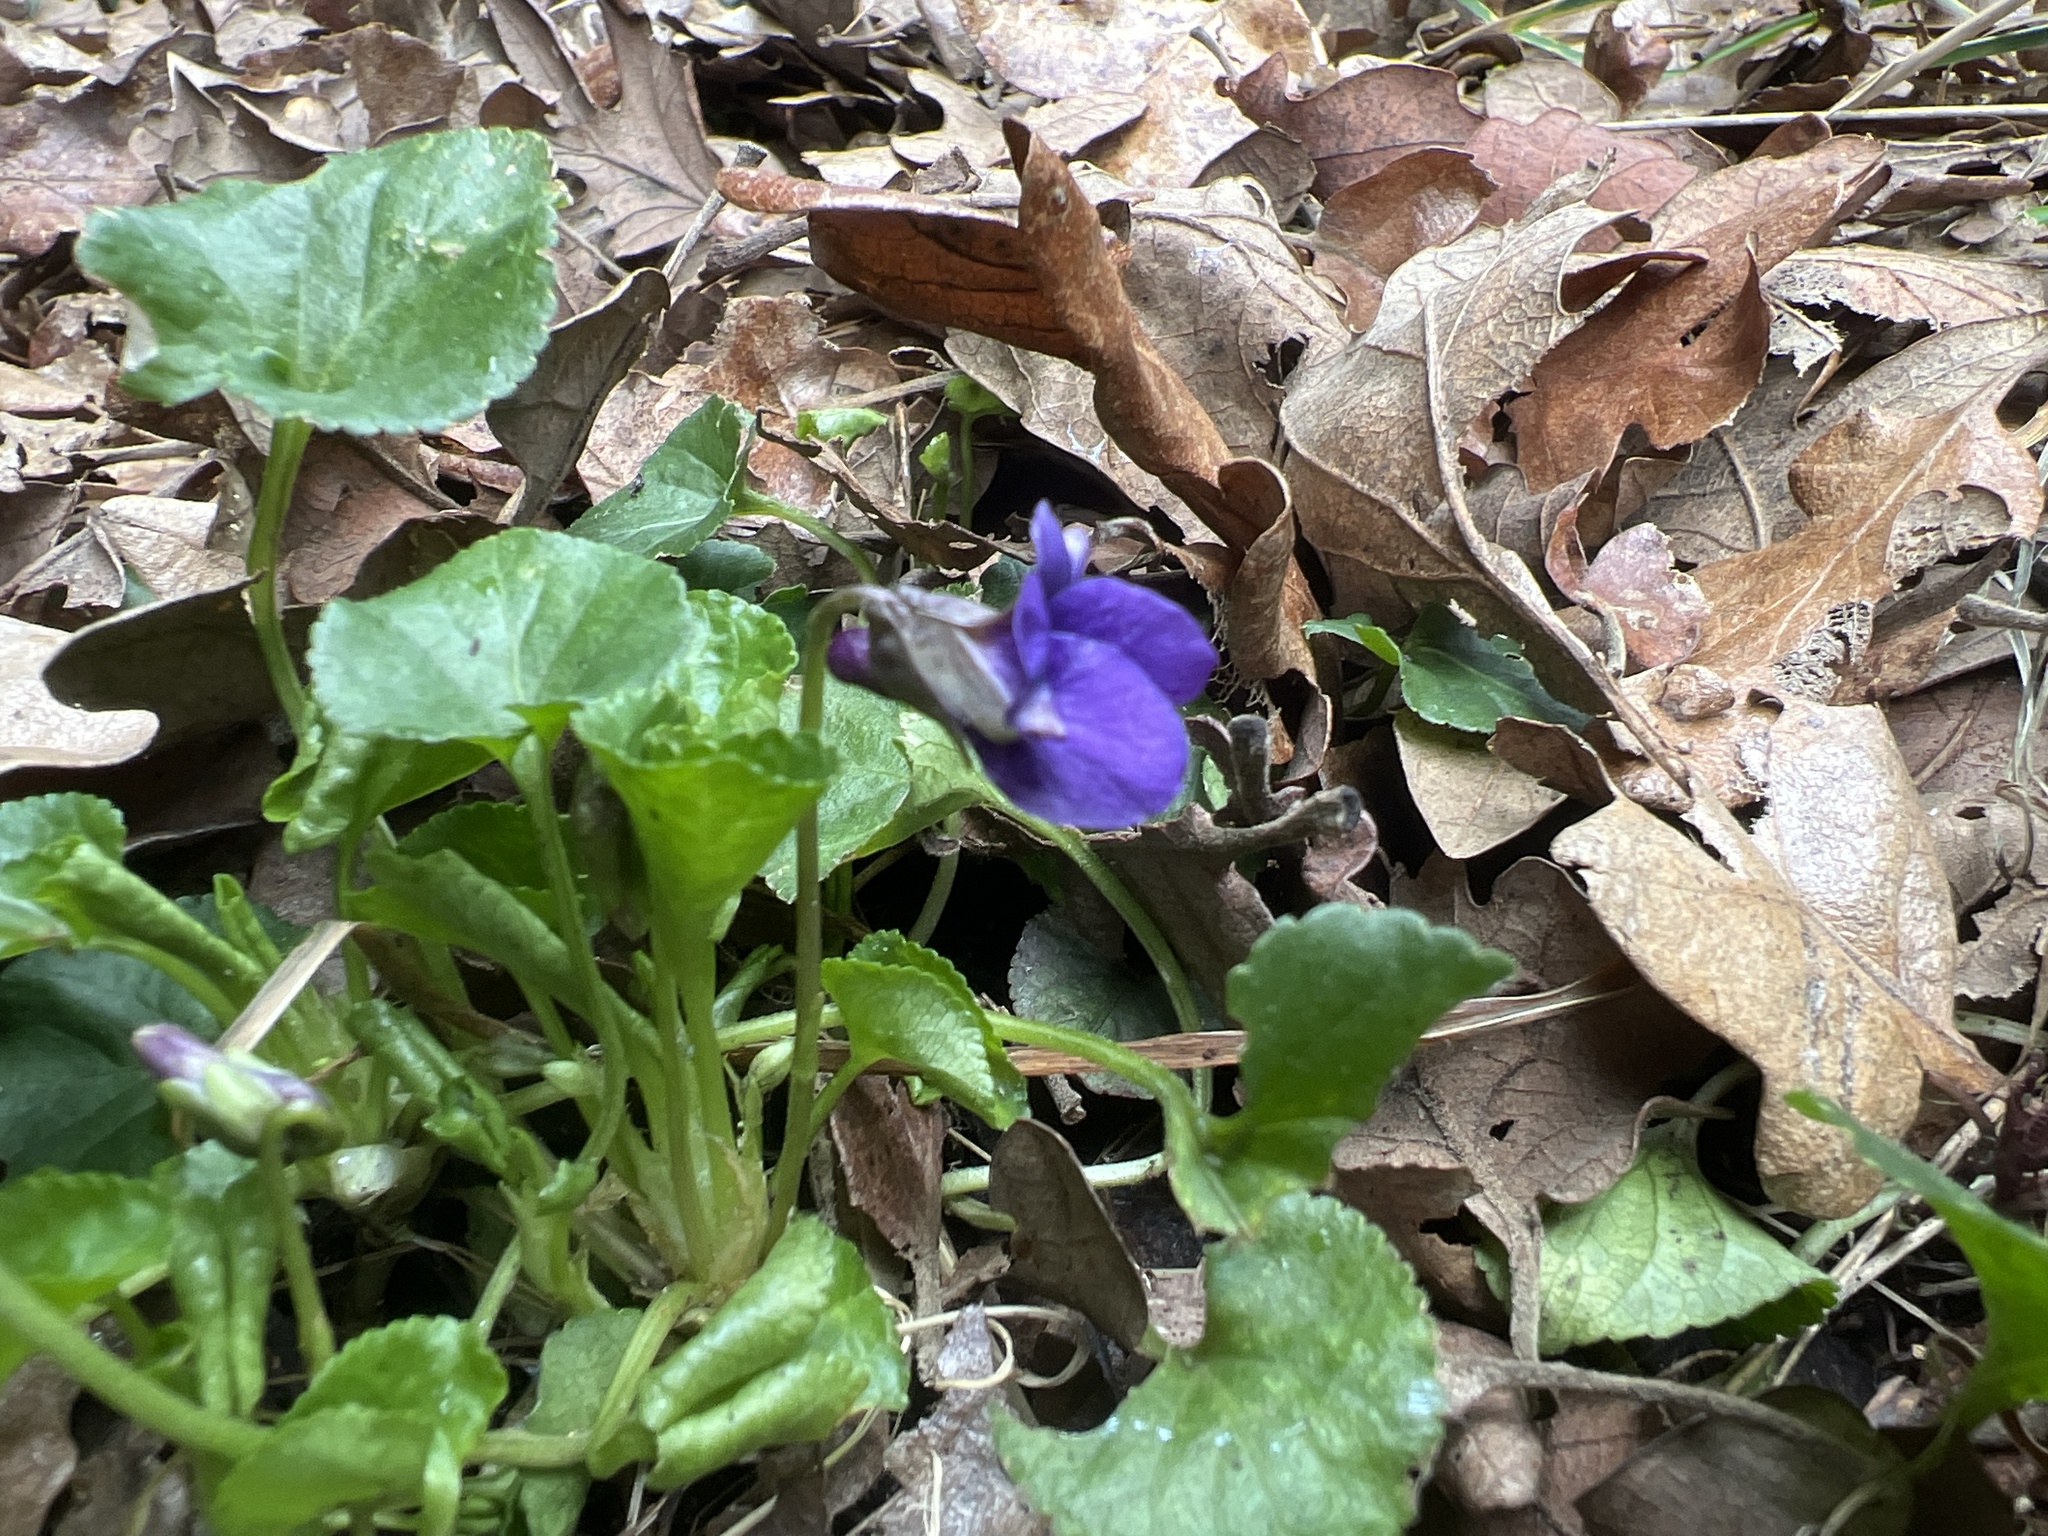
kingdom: Plantae
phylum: Tracheophyta
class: Magnoliopsida
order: Malpighiales
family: Violaceae
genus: Viola
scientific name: Viola odorata
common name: Sweet violet
